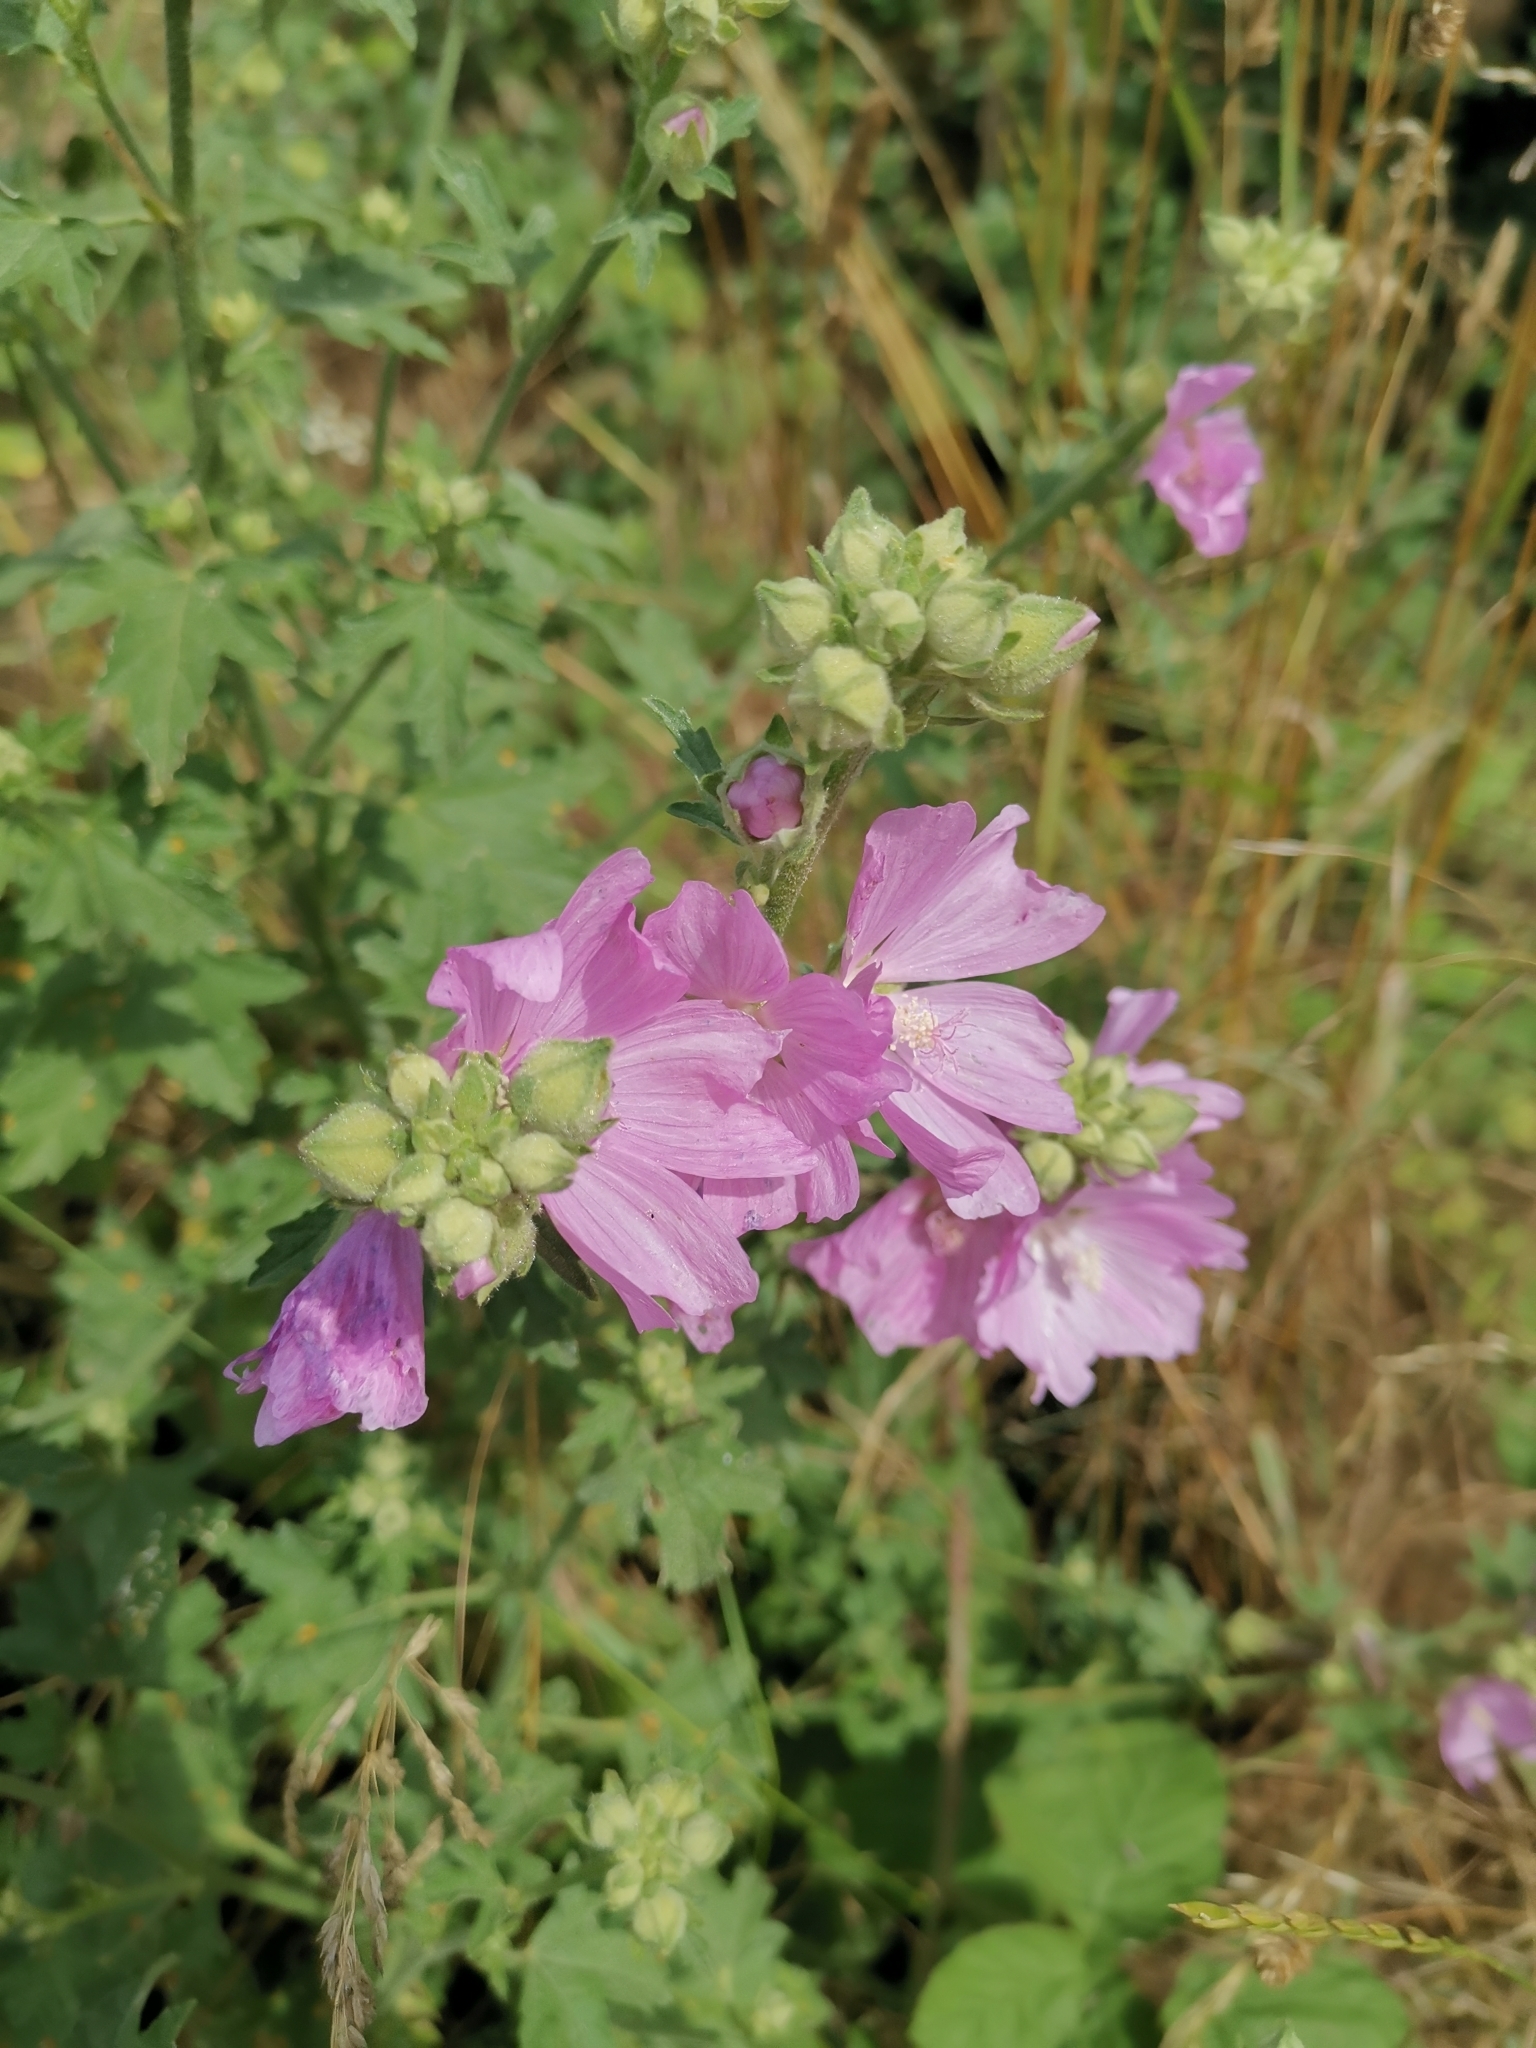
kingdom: Plantae
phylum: Tracheophyta
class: Magnoliopsida
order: Malvales
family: Malvaceae
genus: Malva
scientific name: Malva alcea
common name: Greater musk-mallow
